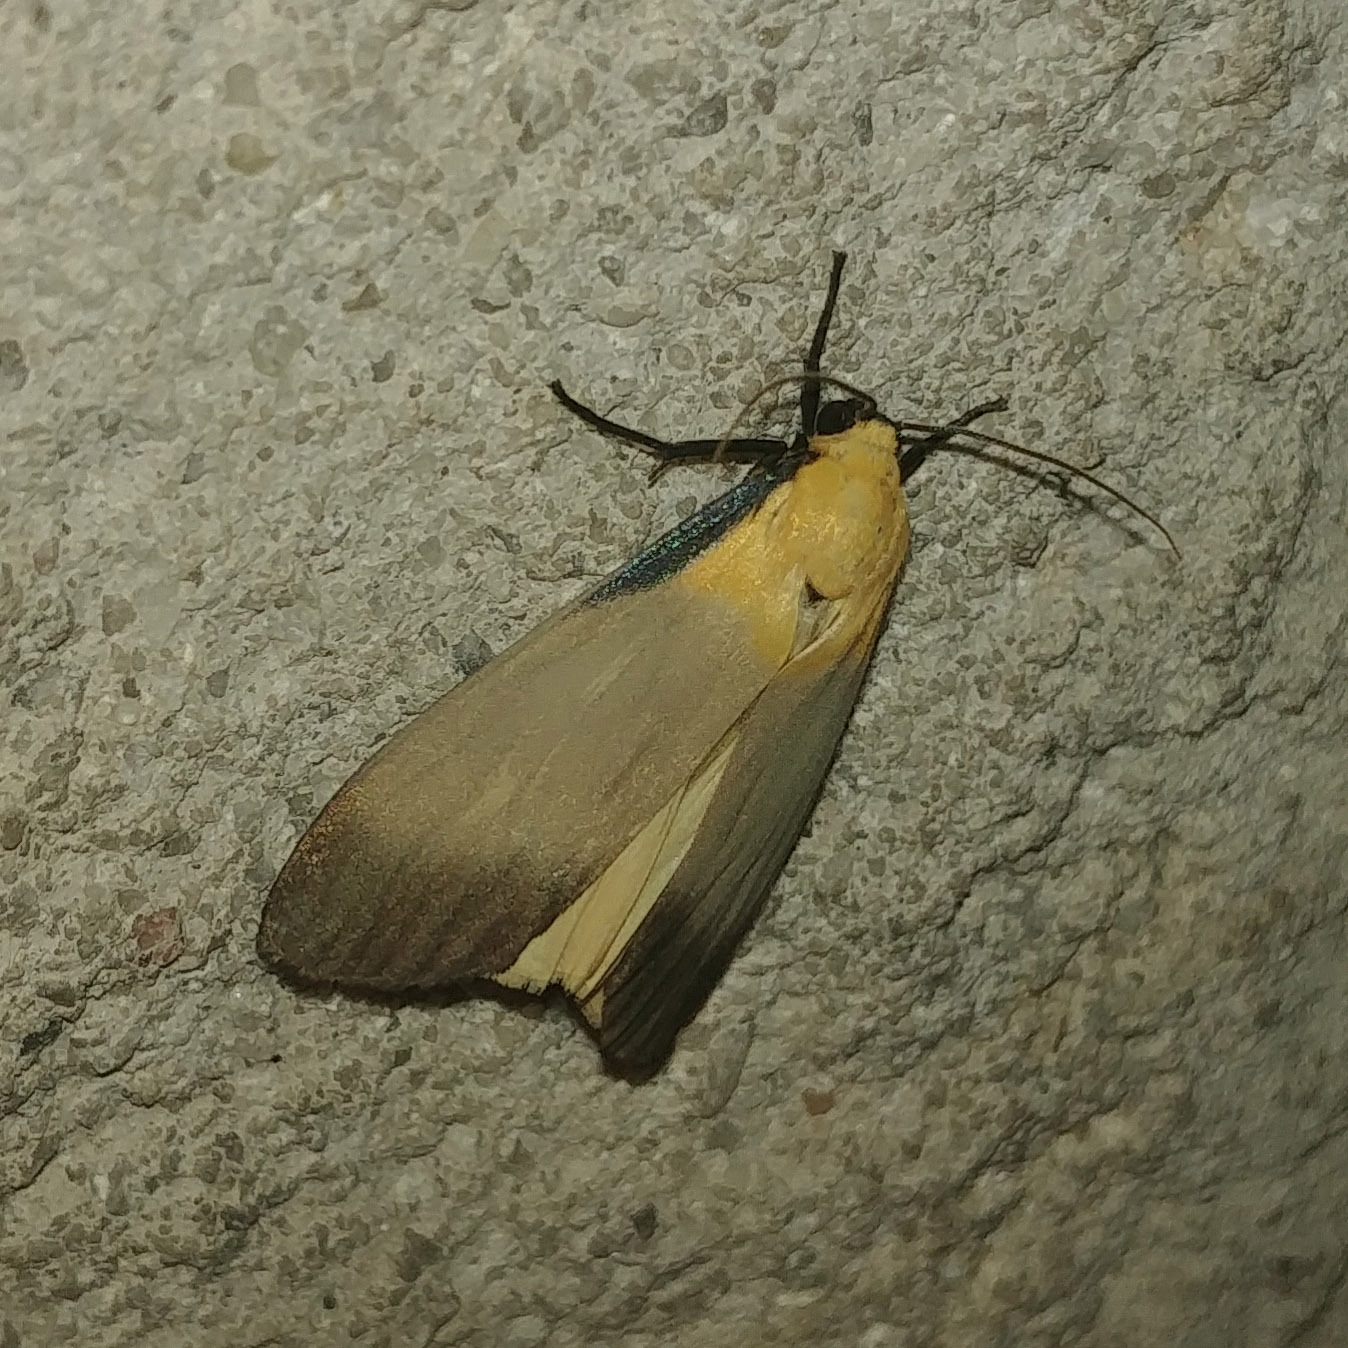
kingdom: Animalia
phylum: Arthropoda
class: Insecta
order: Lepidoptera
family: Erebidae
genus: Lithosia
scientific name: Lithosia quadra
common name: Four-spotted footman
